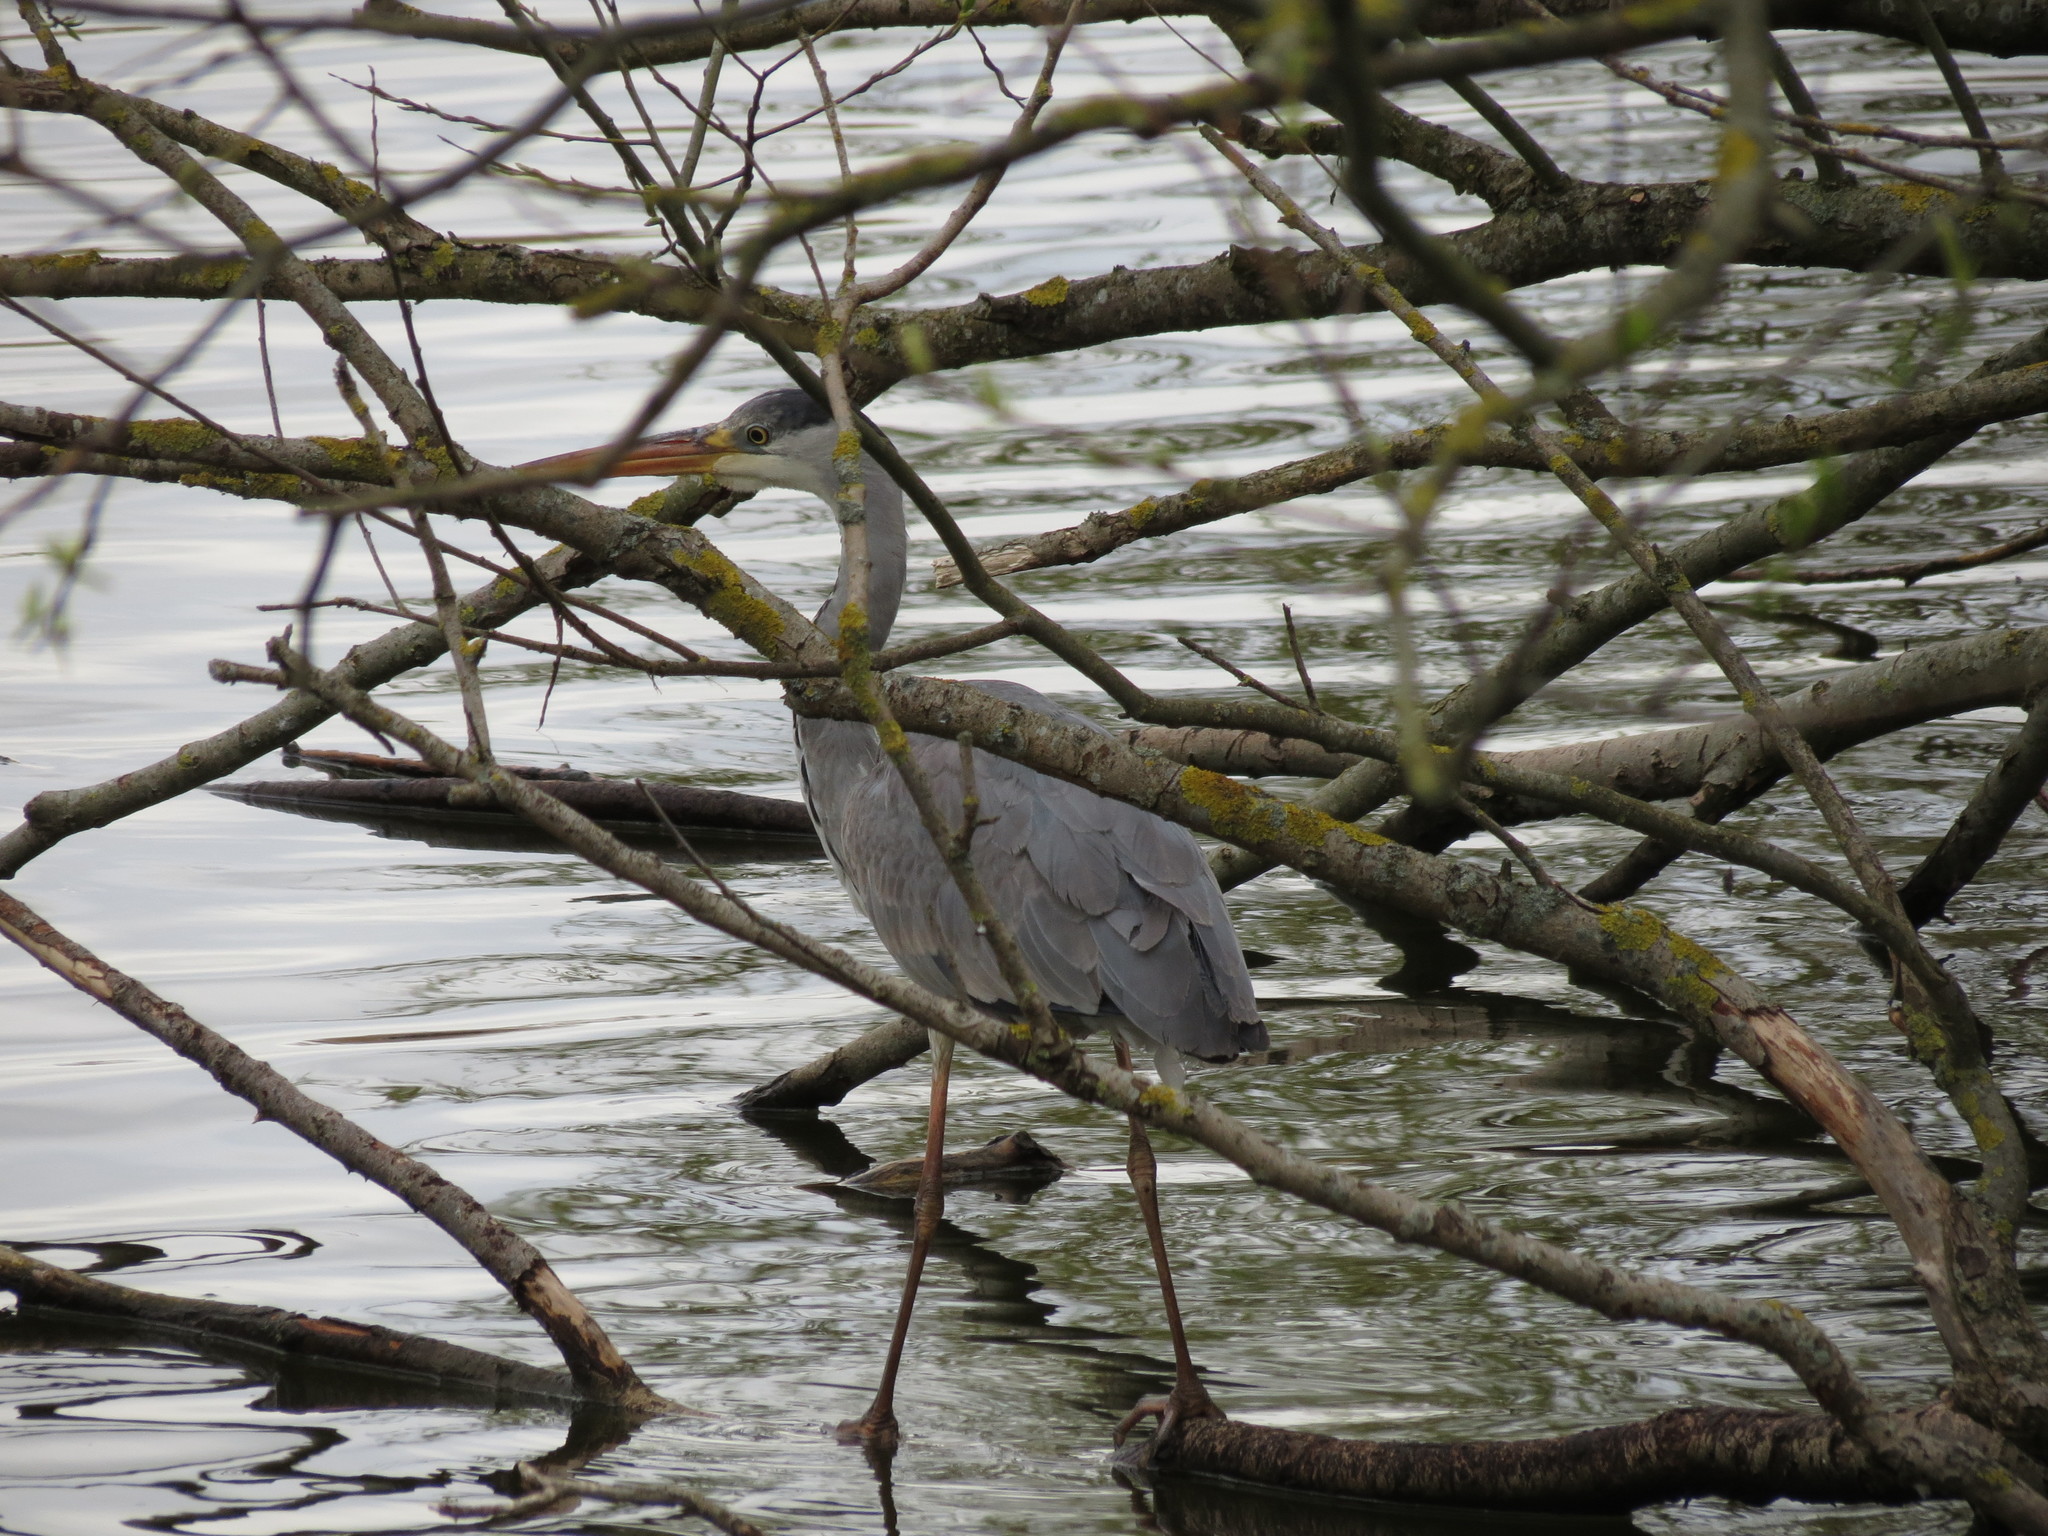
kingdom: Animalia
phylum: Chordata
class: Aves
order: Pelecaniformes
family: Ardeidae
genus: Ardea
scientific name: Ardea cinerea
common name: Grey heron
